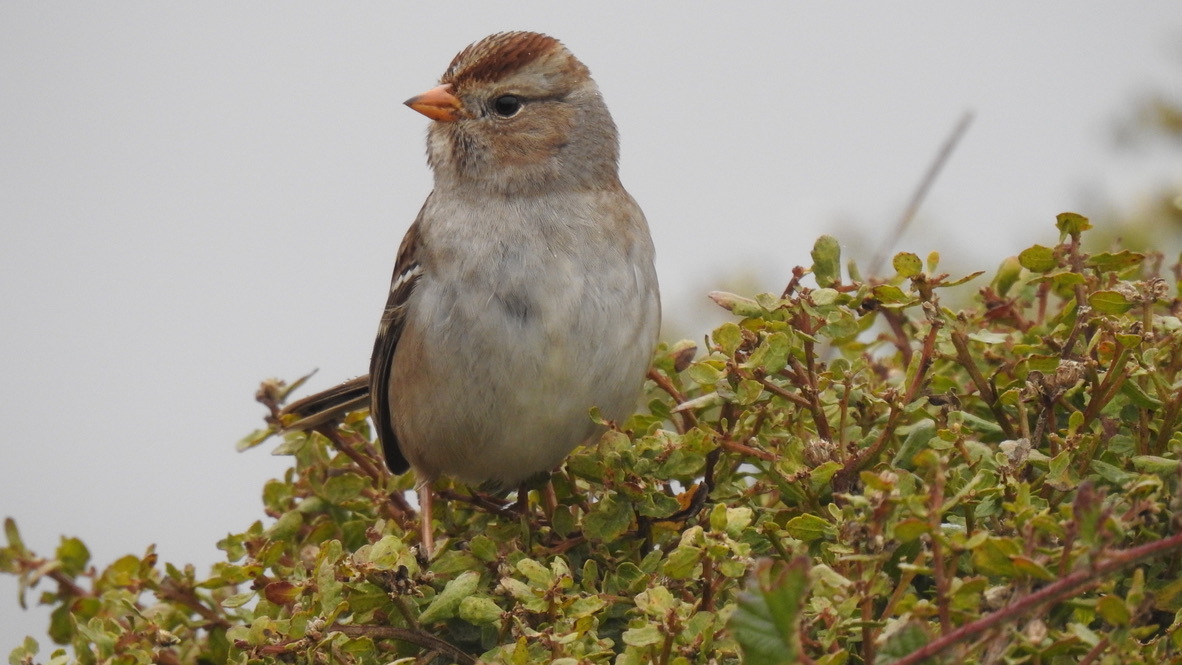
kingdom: Animalia
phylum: Chordata
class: Aves
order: Passeriformes
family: Passerellidae
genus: Zonotrichia
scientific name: Zonotrichia leucophrys
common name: White-crowned sparrow
